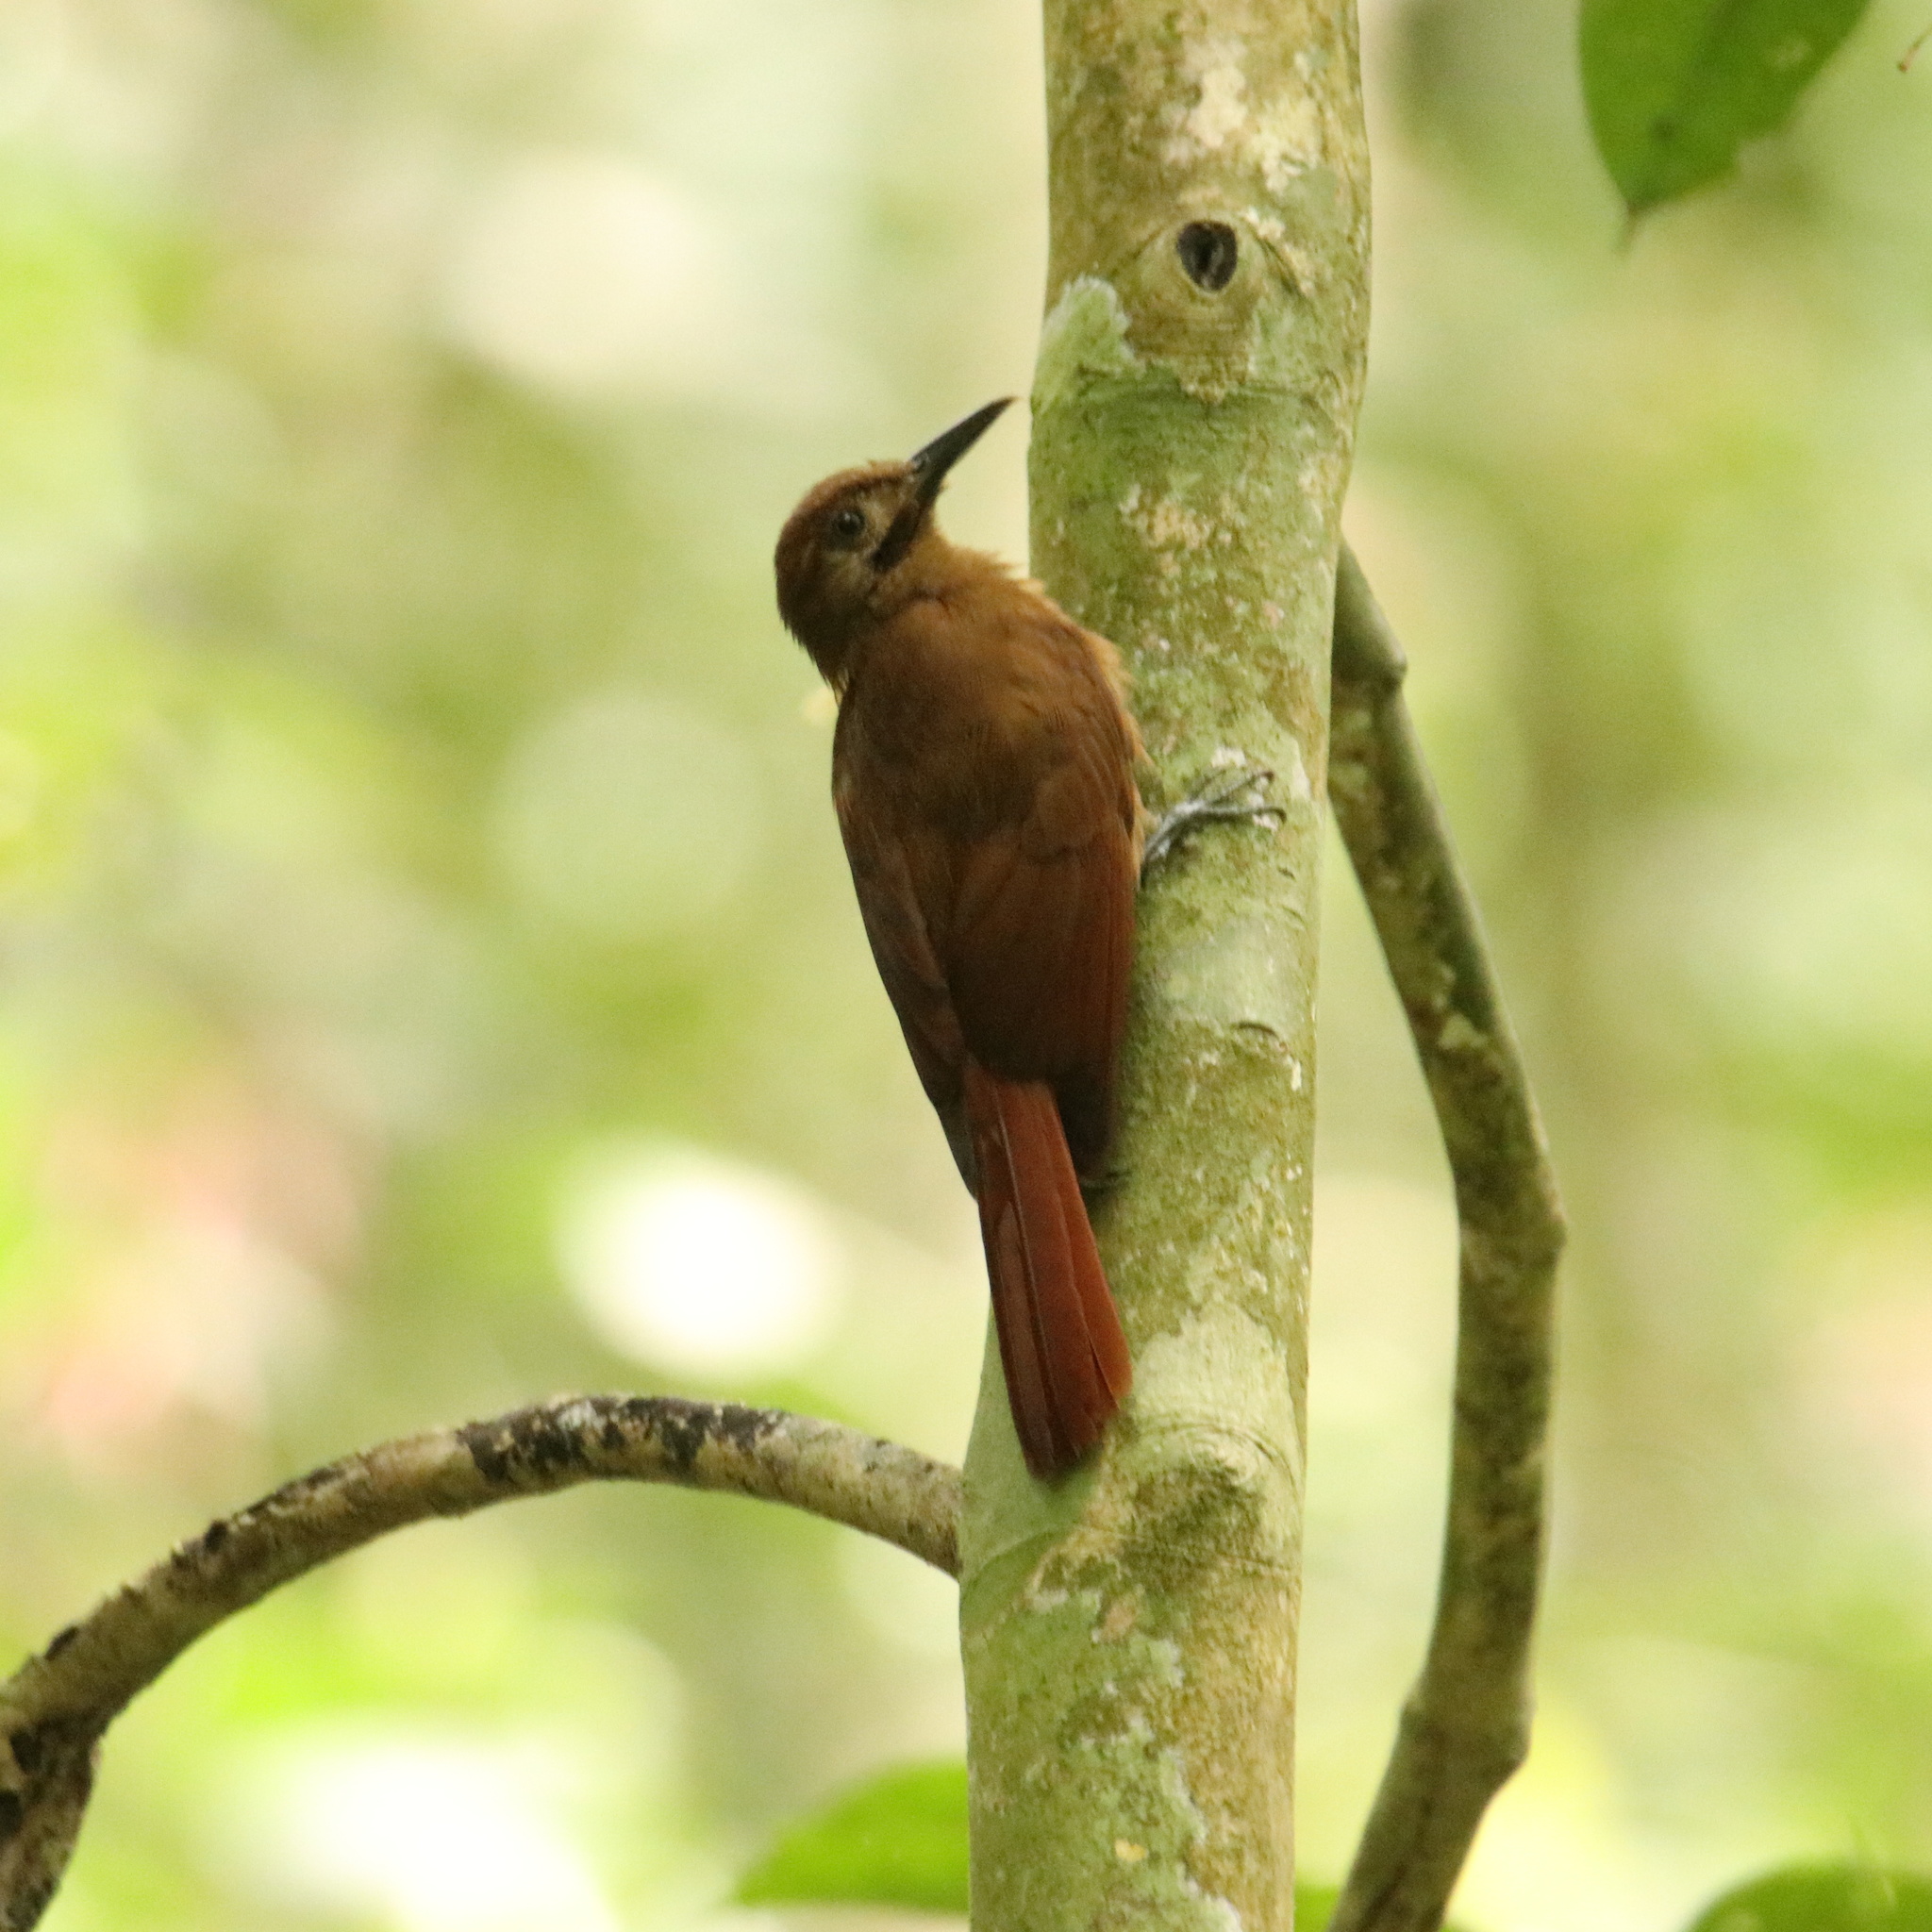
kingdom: Animalia
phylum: Chordata
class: Aves
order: Passeriformes
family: Furnariidae
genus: Dendrocincla
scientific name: Dendrocincla fuliginosa
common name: Plain-brown woodcreeper
